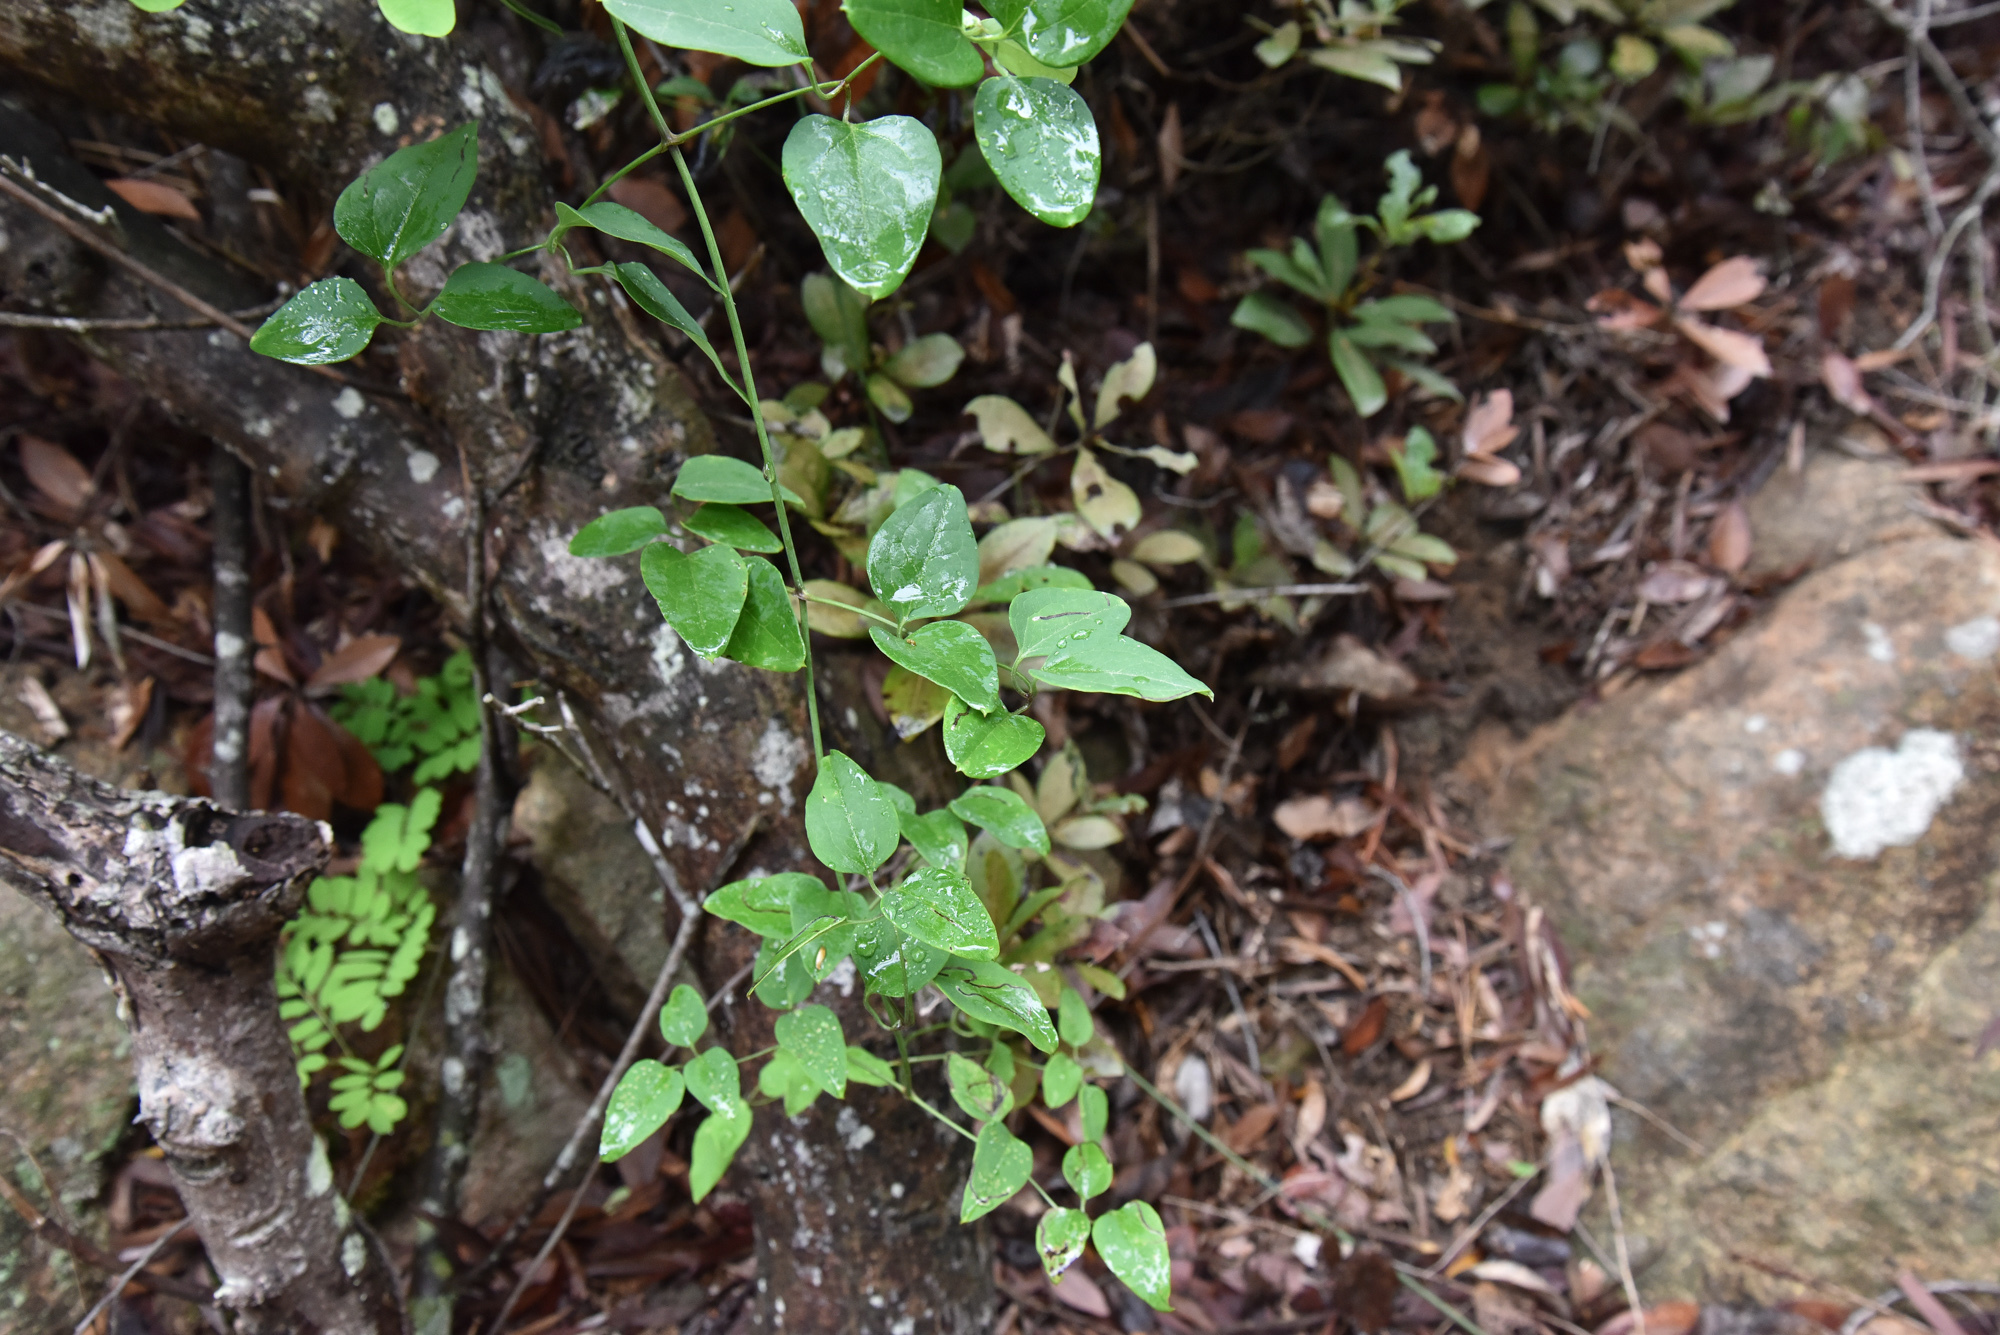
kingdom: Plantae
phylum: Tracheophyta
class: Magnoliopsida
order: Ranunculales
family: Ranunculaceae
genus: Clematis
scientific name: Clematis chinensis
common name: Chinese clematis
